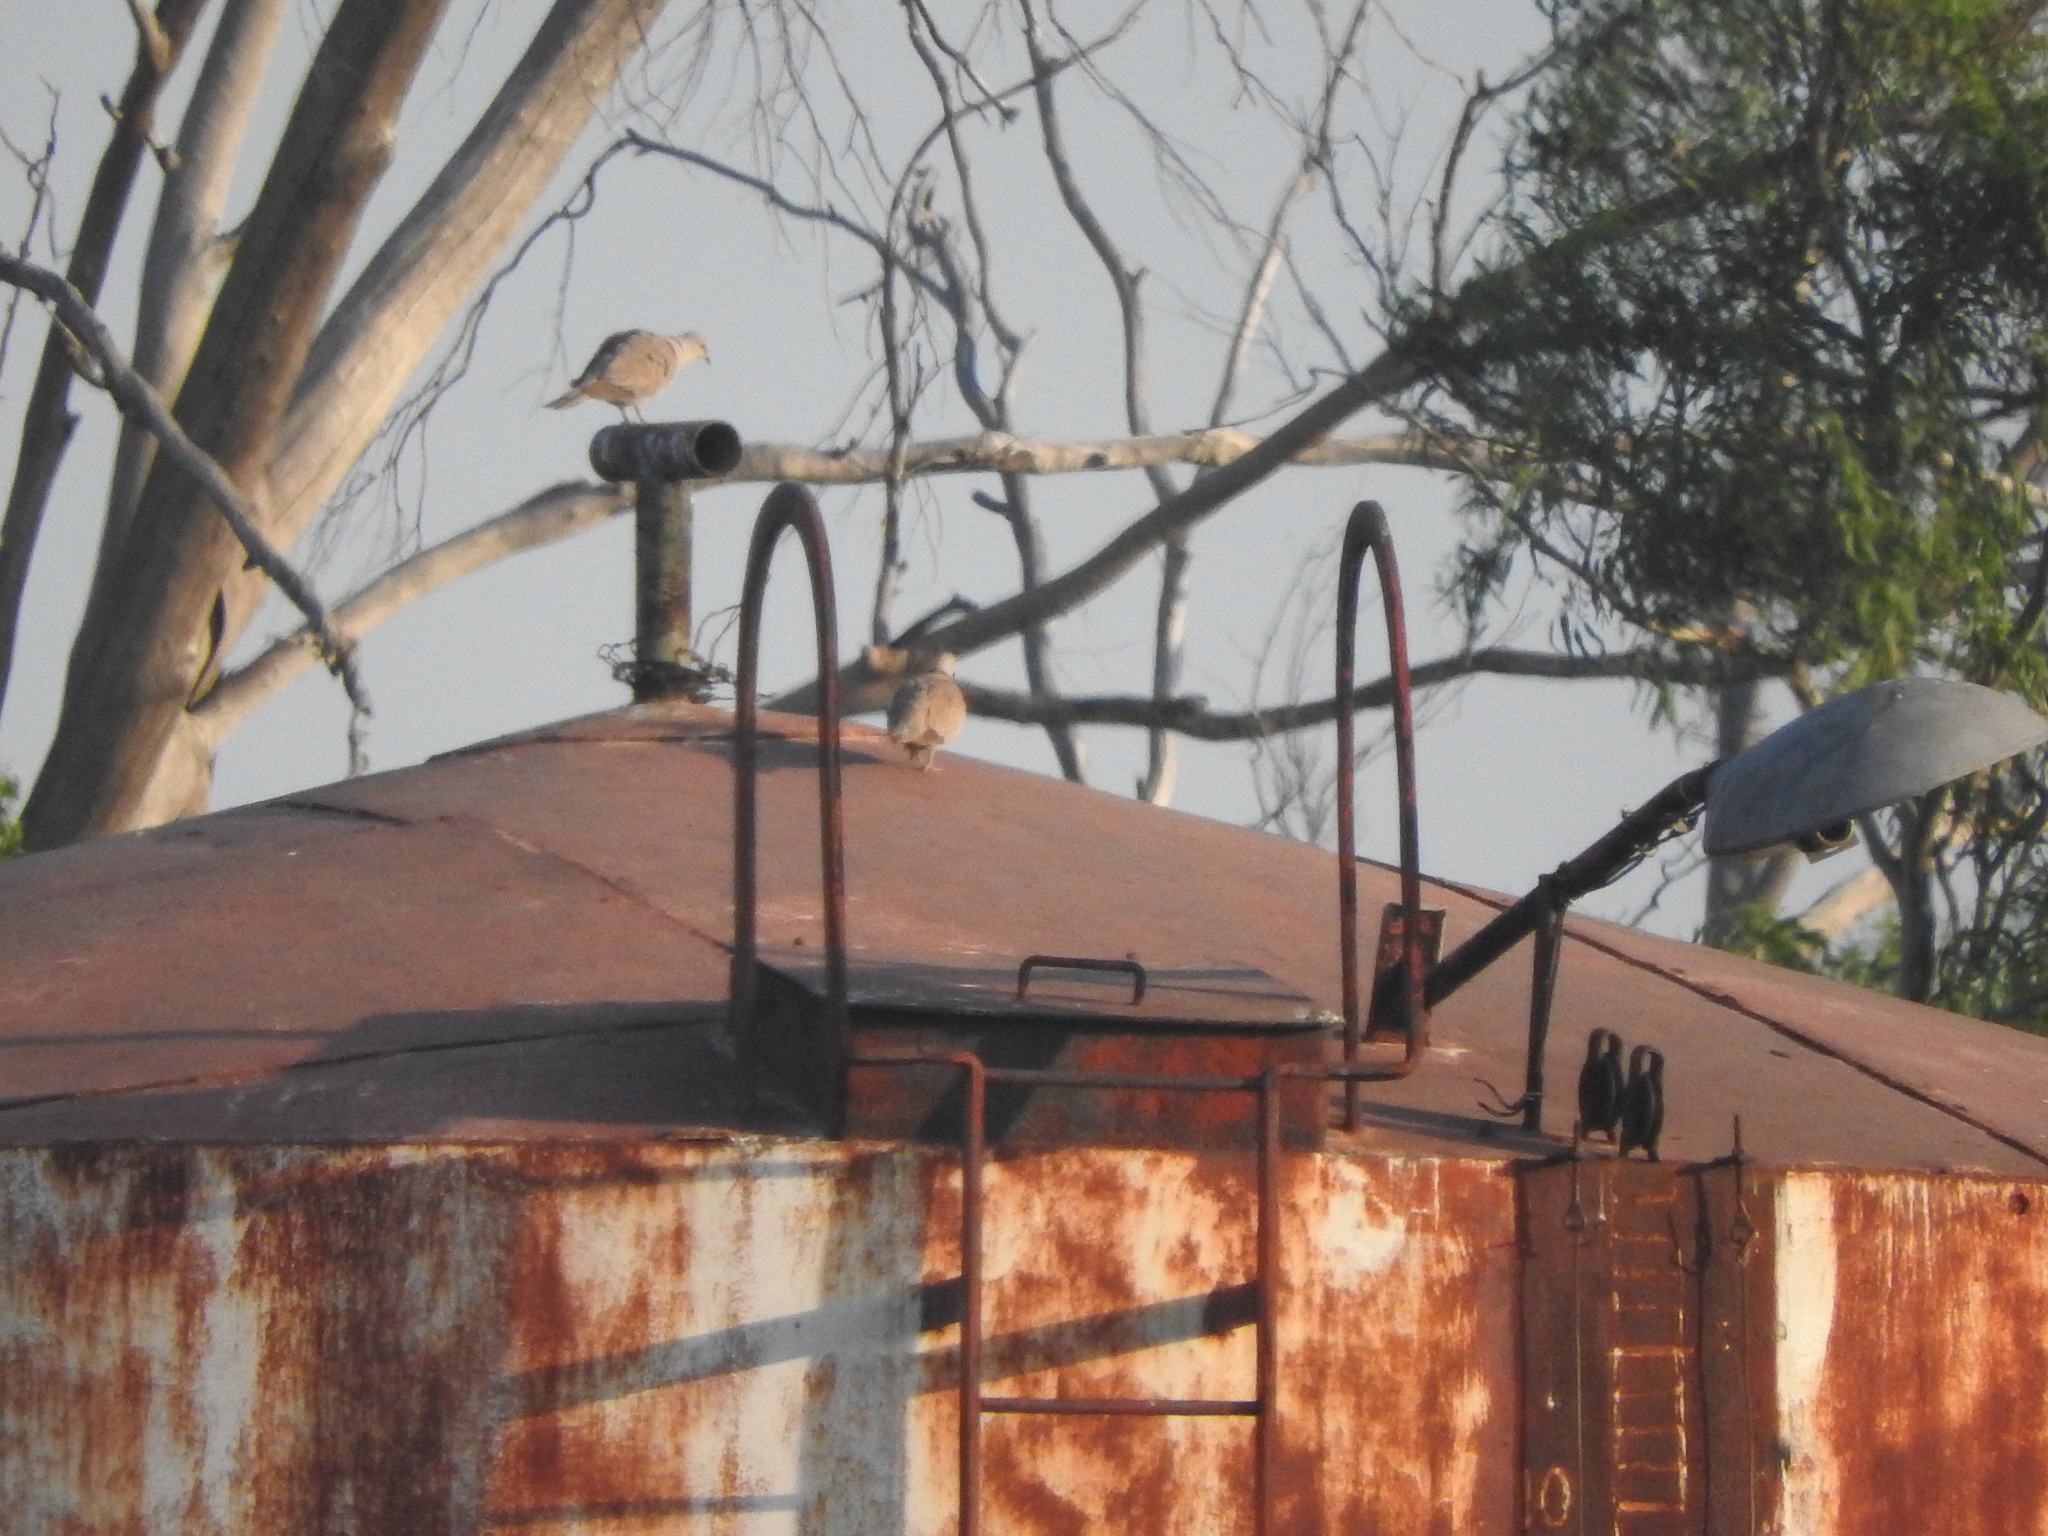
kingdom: Animalia
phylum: Chordata
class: Aves
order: Columbiformes
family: Columbidae
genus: Streptopelia
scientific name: Streptopelia decaocto
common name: Eurasian collared dove
